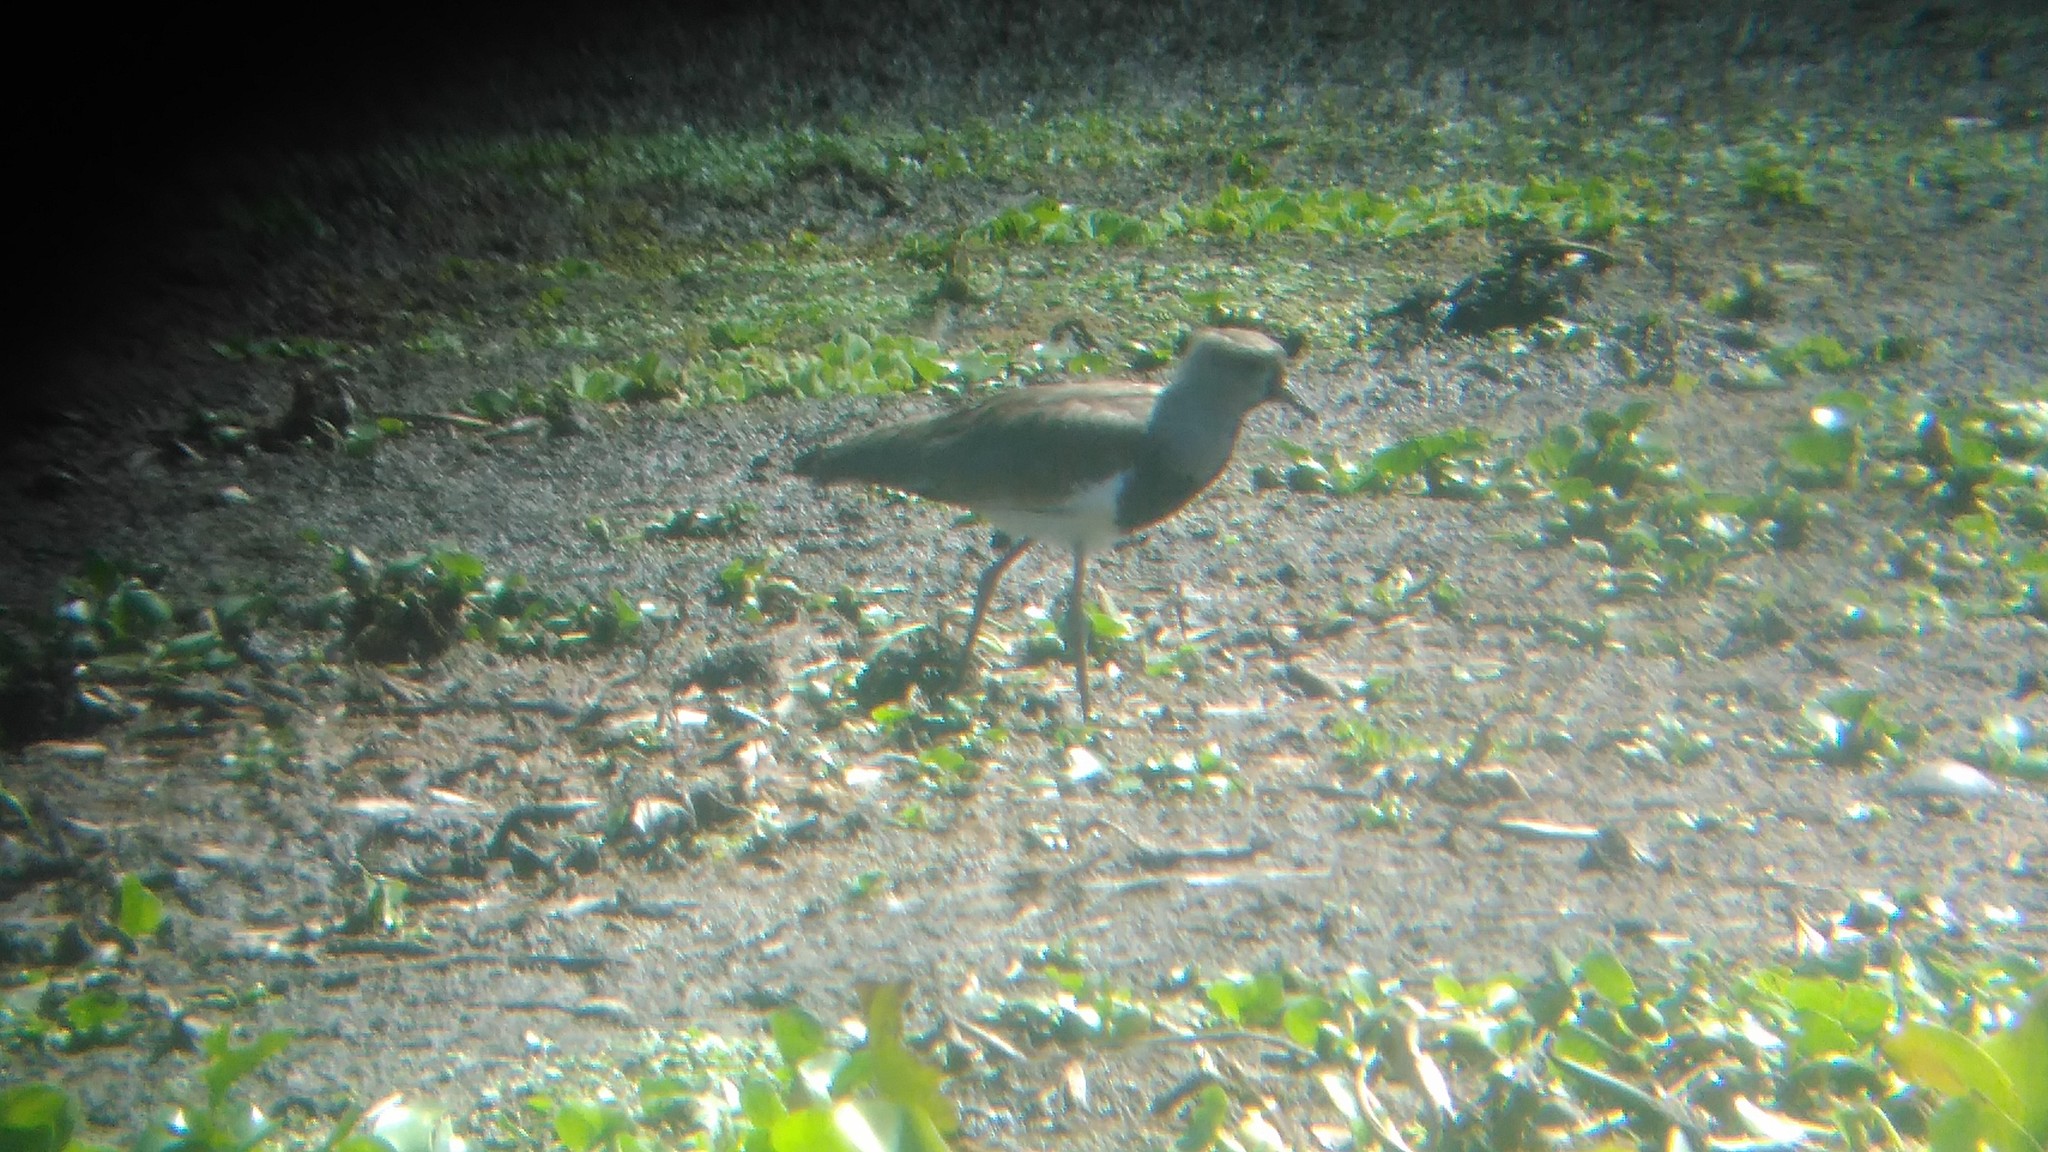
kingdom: Animalia
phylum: Chordata
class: Aves
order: Charadriiformes
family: Charadriidae
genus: Vanellus
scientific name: Vanellus chilensis
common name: Southern lapwing
